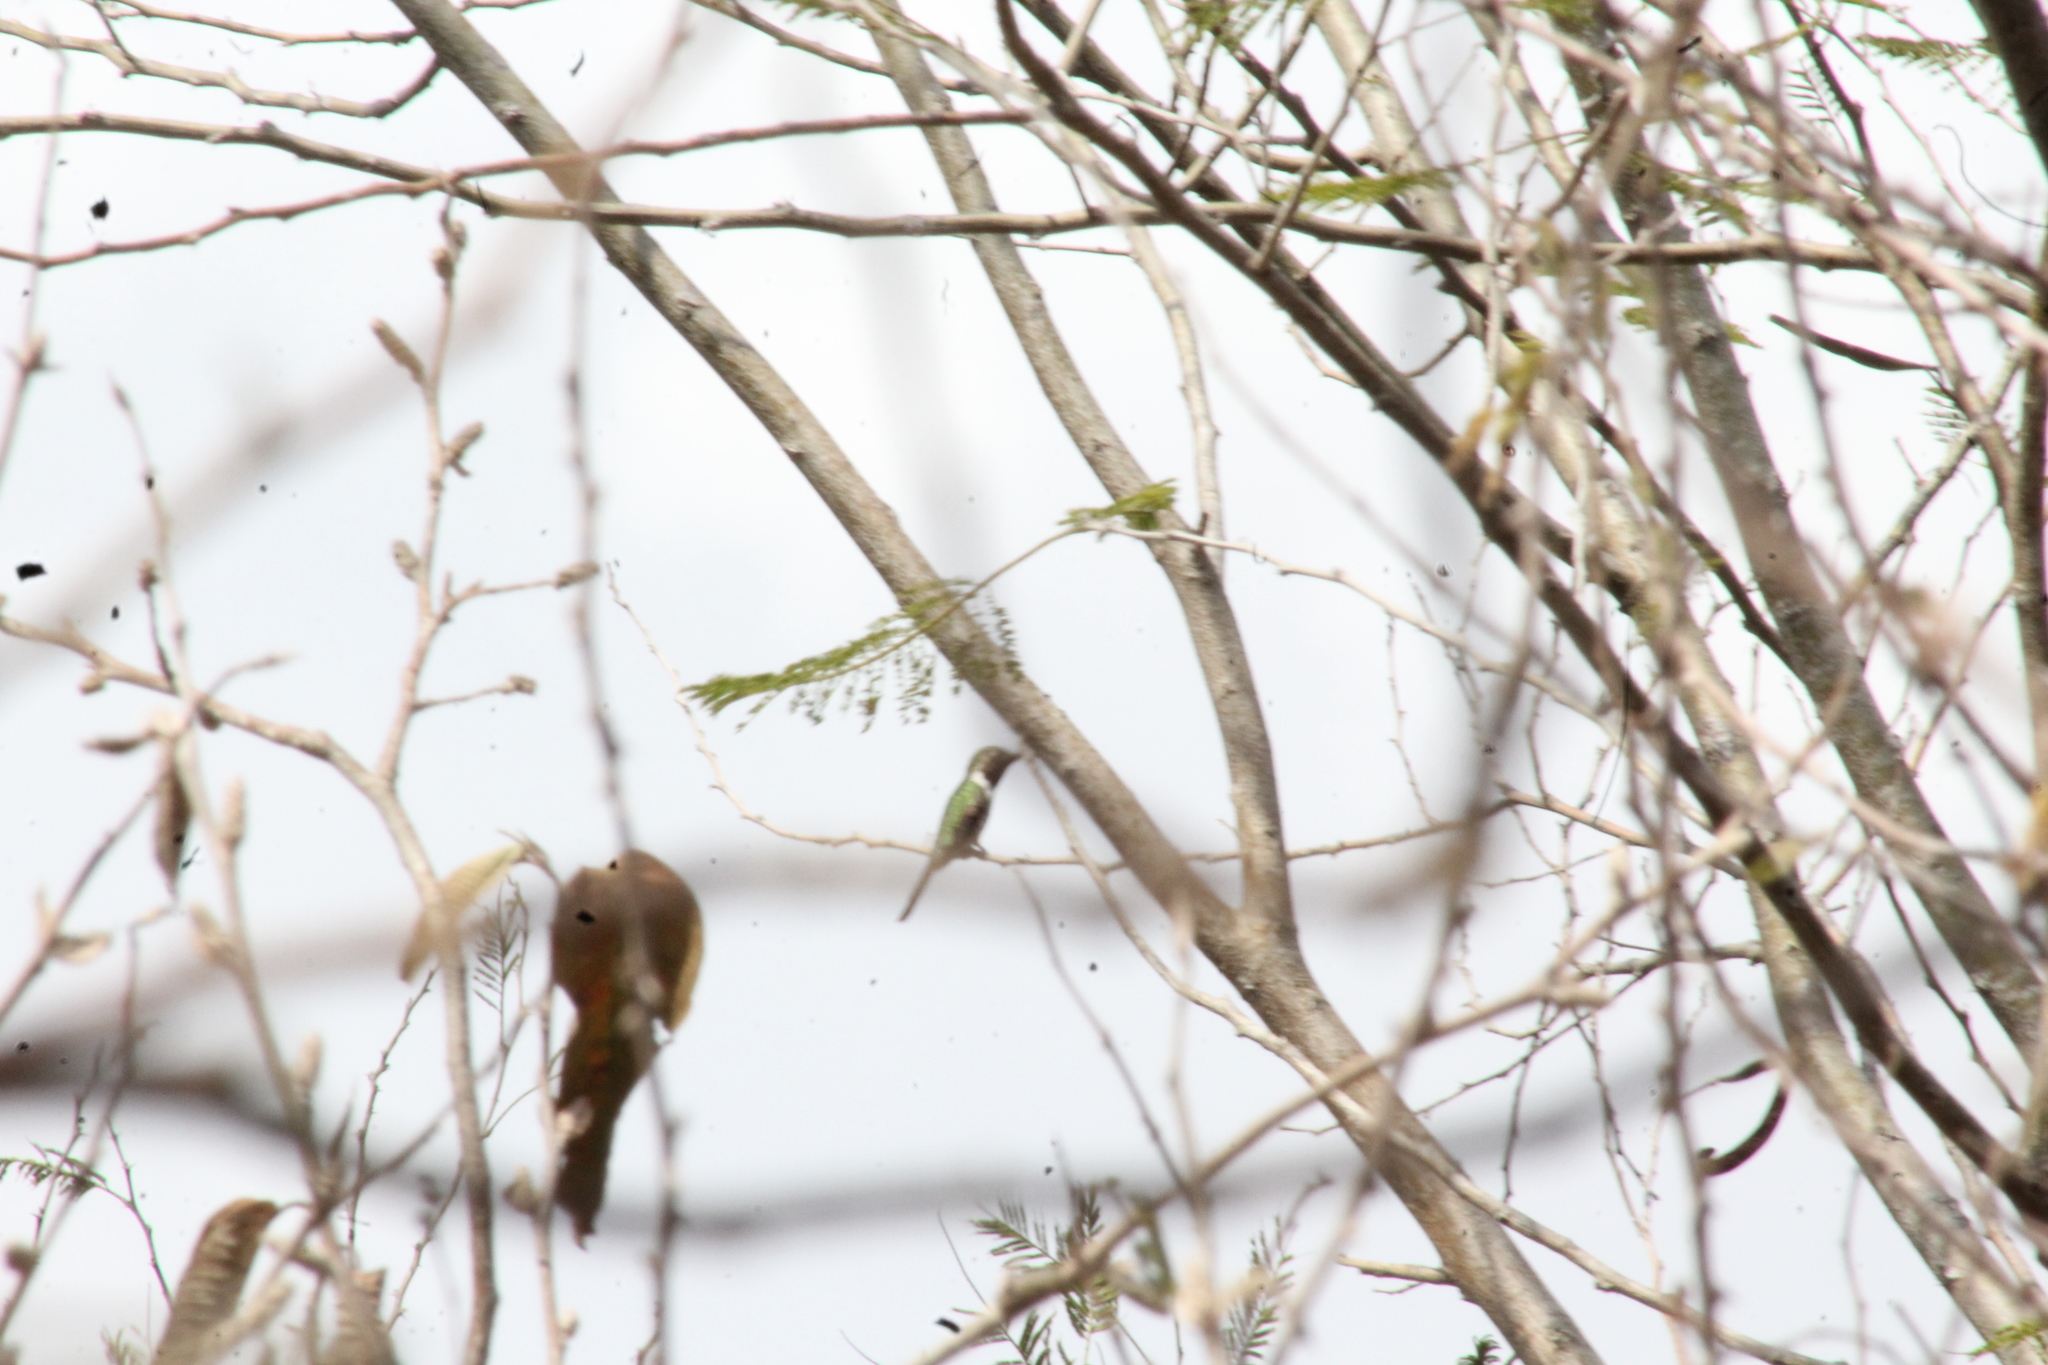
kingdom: Animalia
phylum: Chordata
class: Aves
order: Apodiformes
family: Trochilidae
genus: Doricha
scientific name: Doricha eliza
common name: Mexican sheartail
